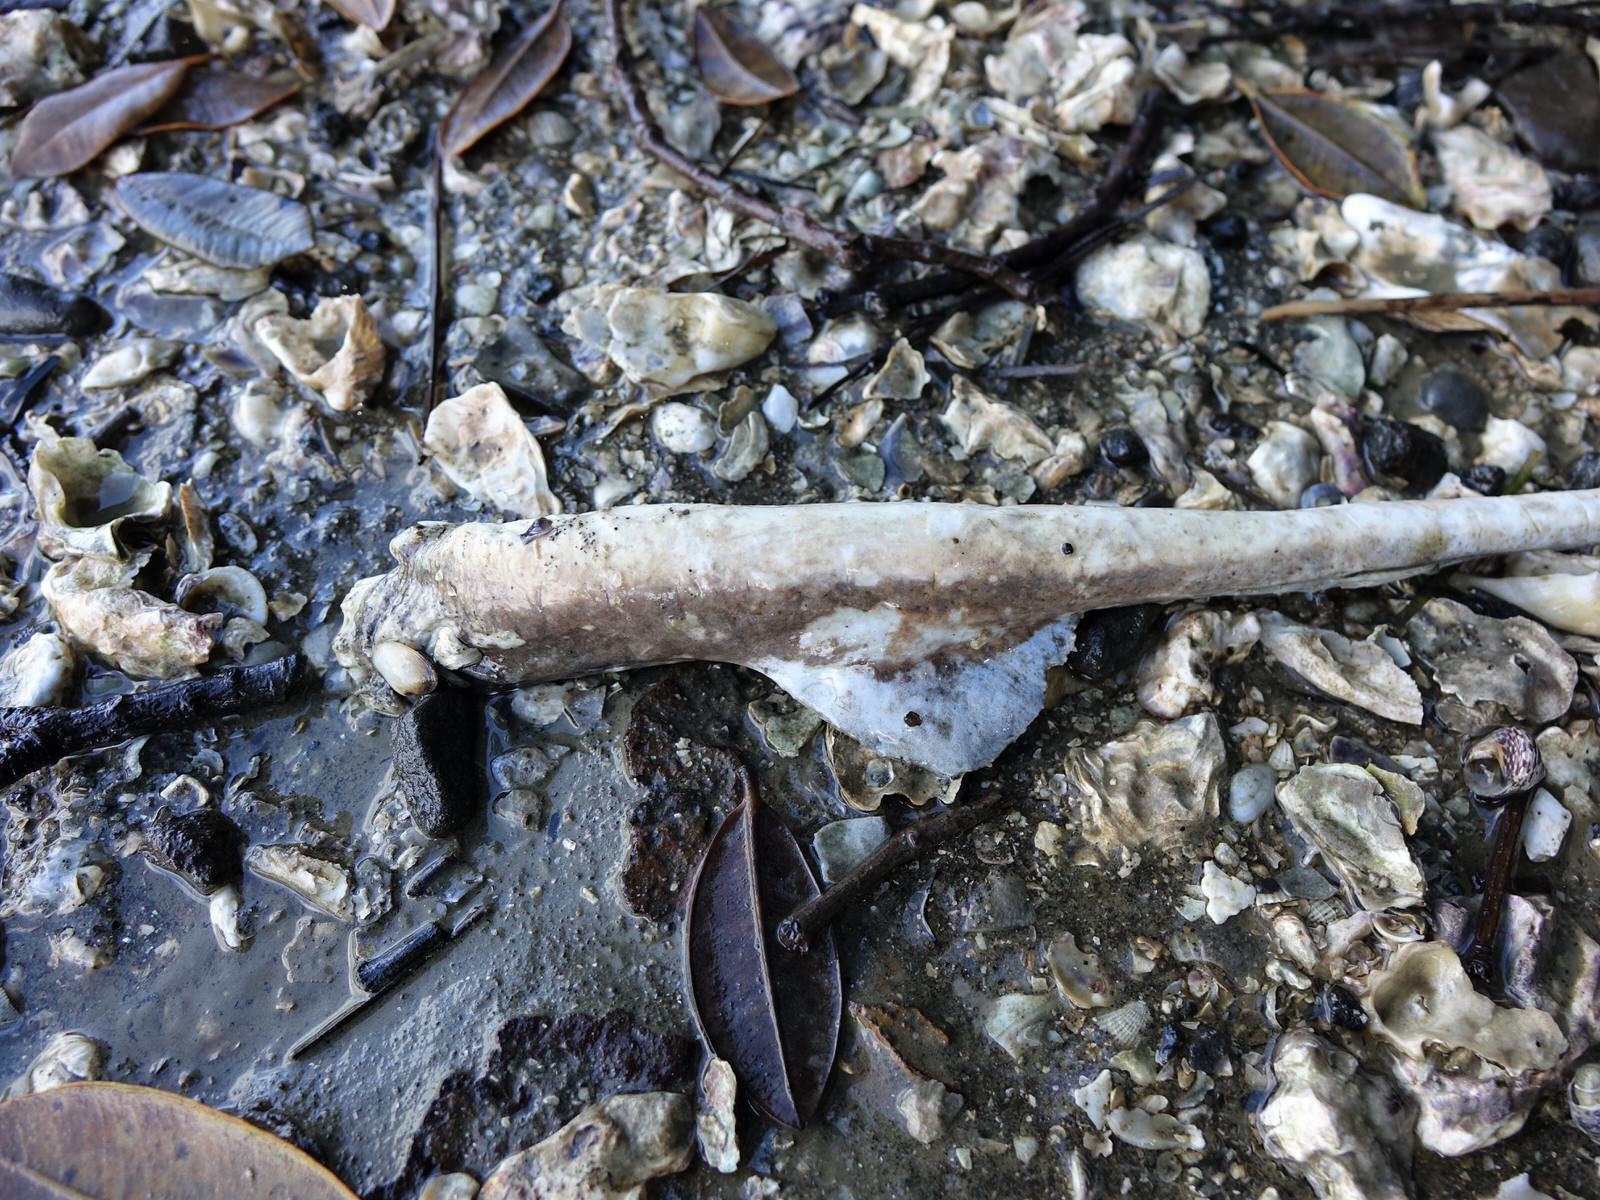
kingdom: Animalia
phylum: Chordata
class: Elasmobranchii
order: Myliobatiformes
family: Myliobatidae
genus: Myliobatis
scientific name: Myliobatis tenuicaudatus
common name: Eagle ray
